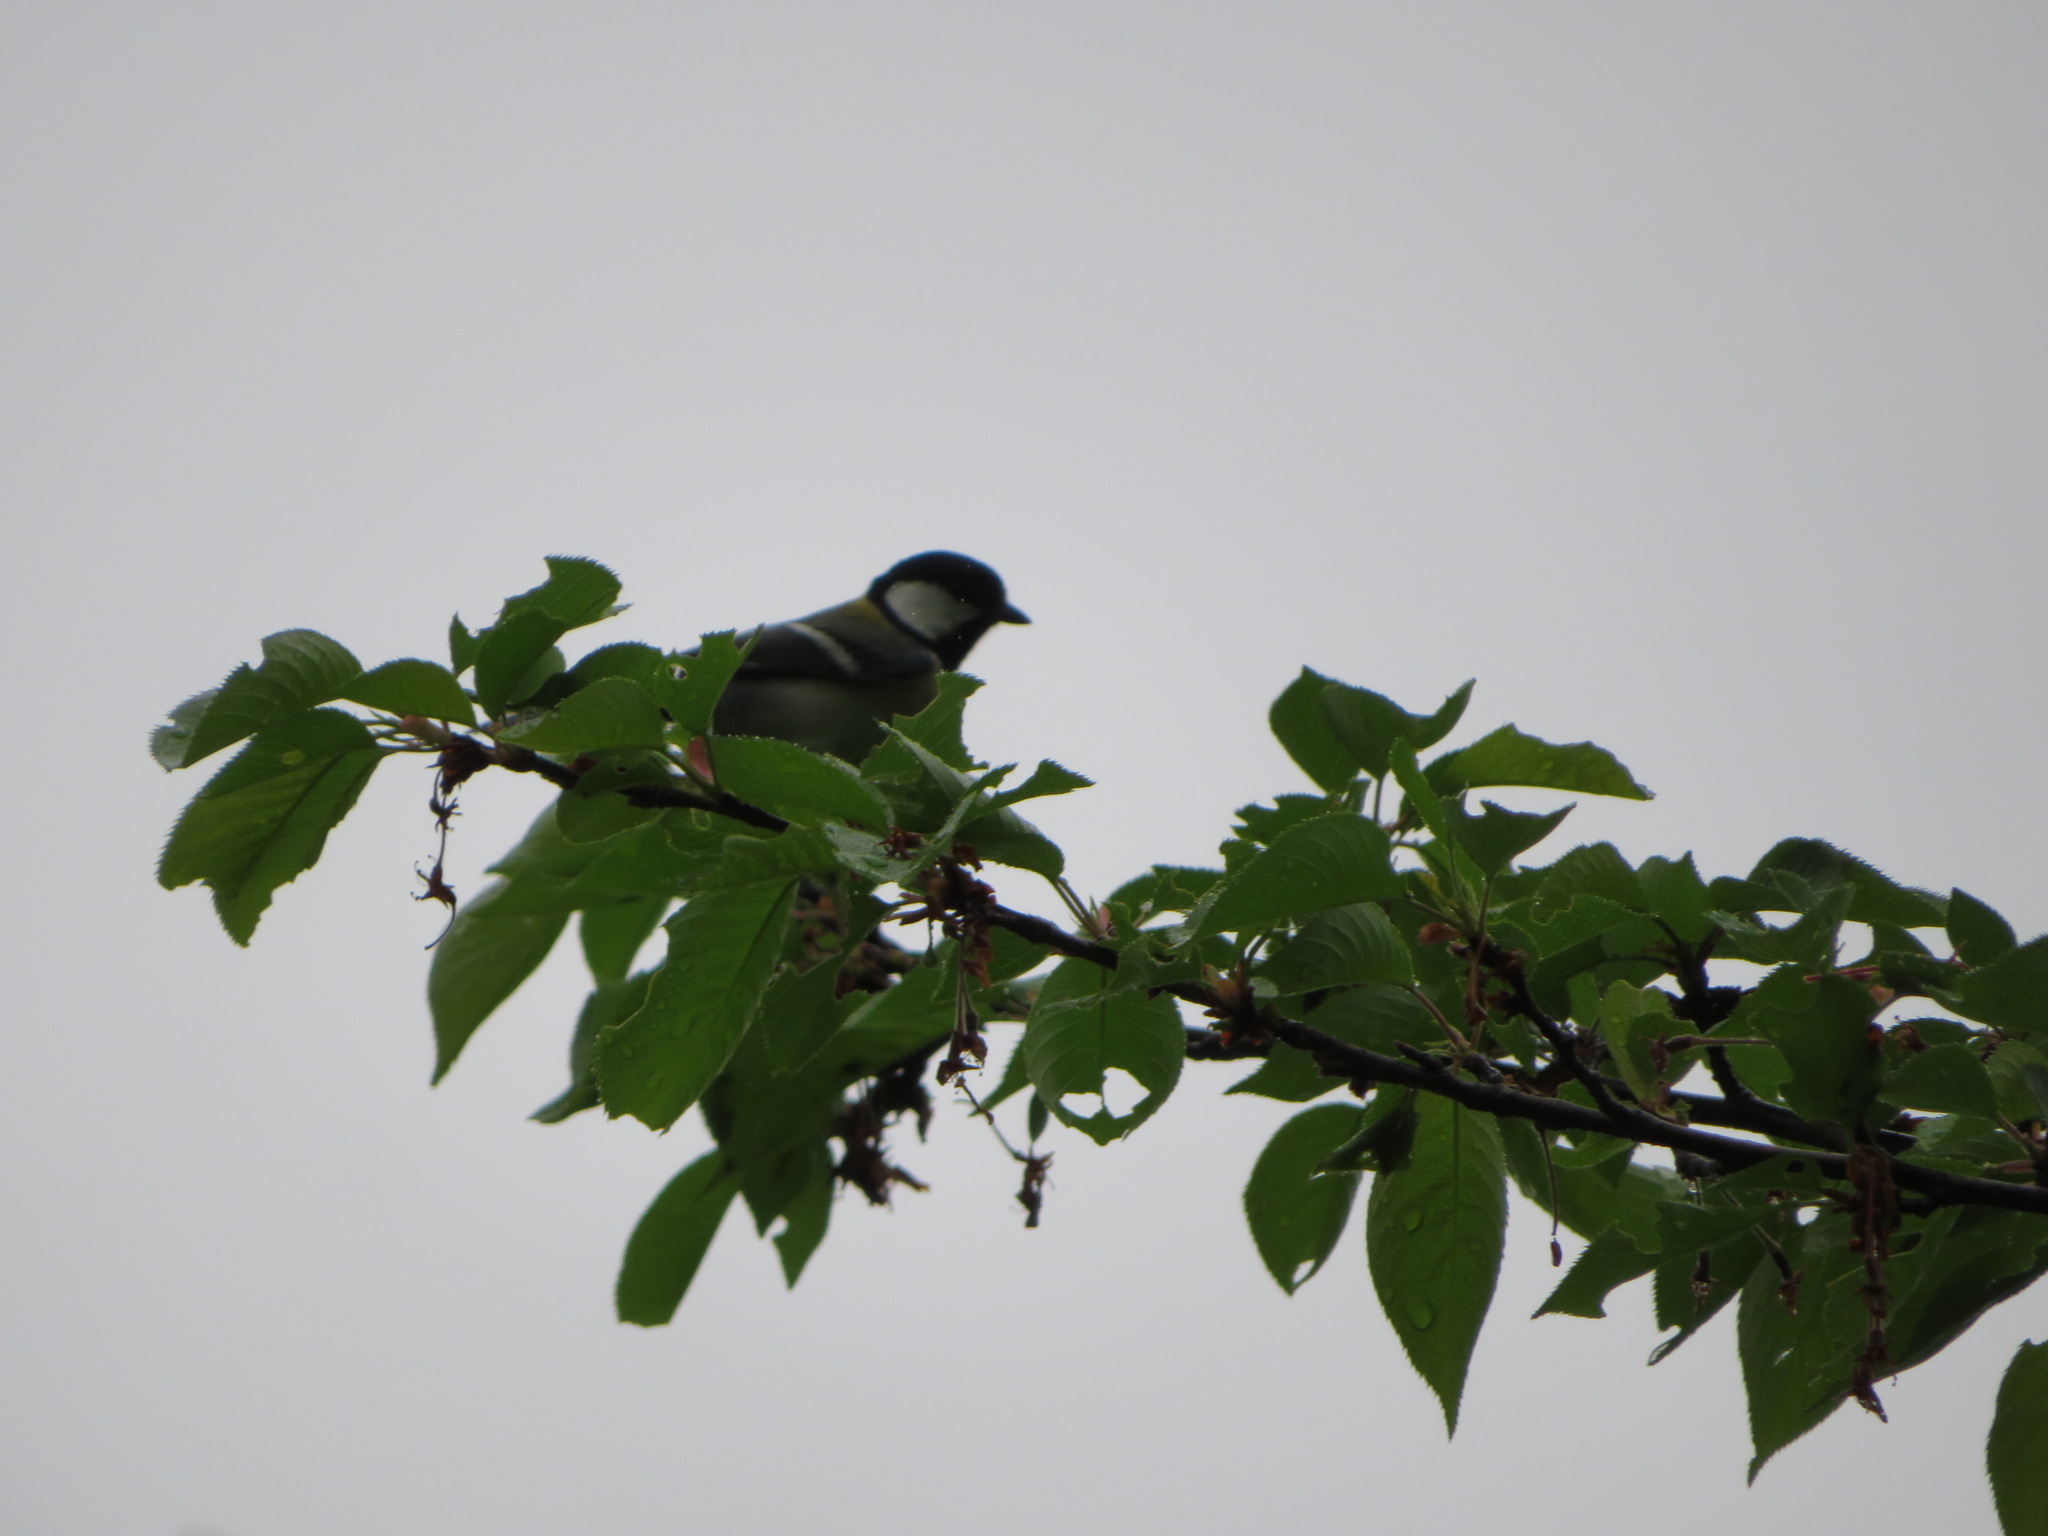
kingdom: Animalia
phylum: Chordata
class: Aves
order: Passeriformes
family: Paridae
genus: Parus
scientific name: Parus minor
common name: Japanese tit
